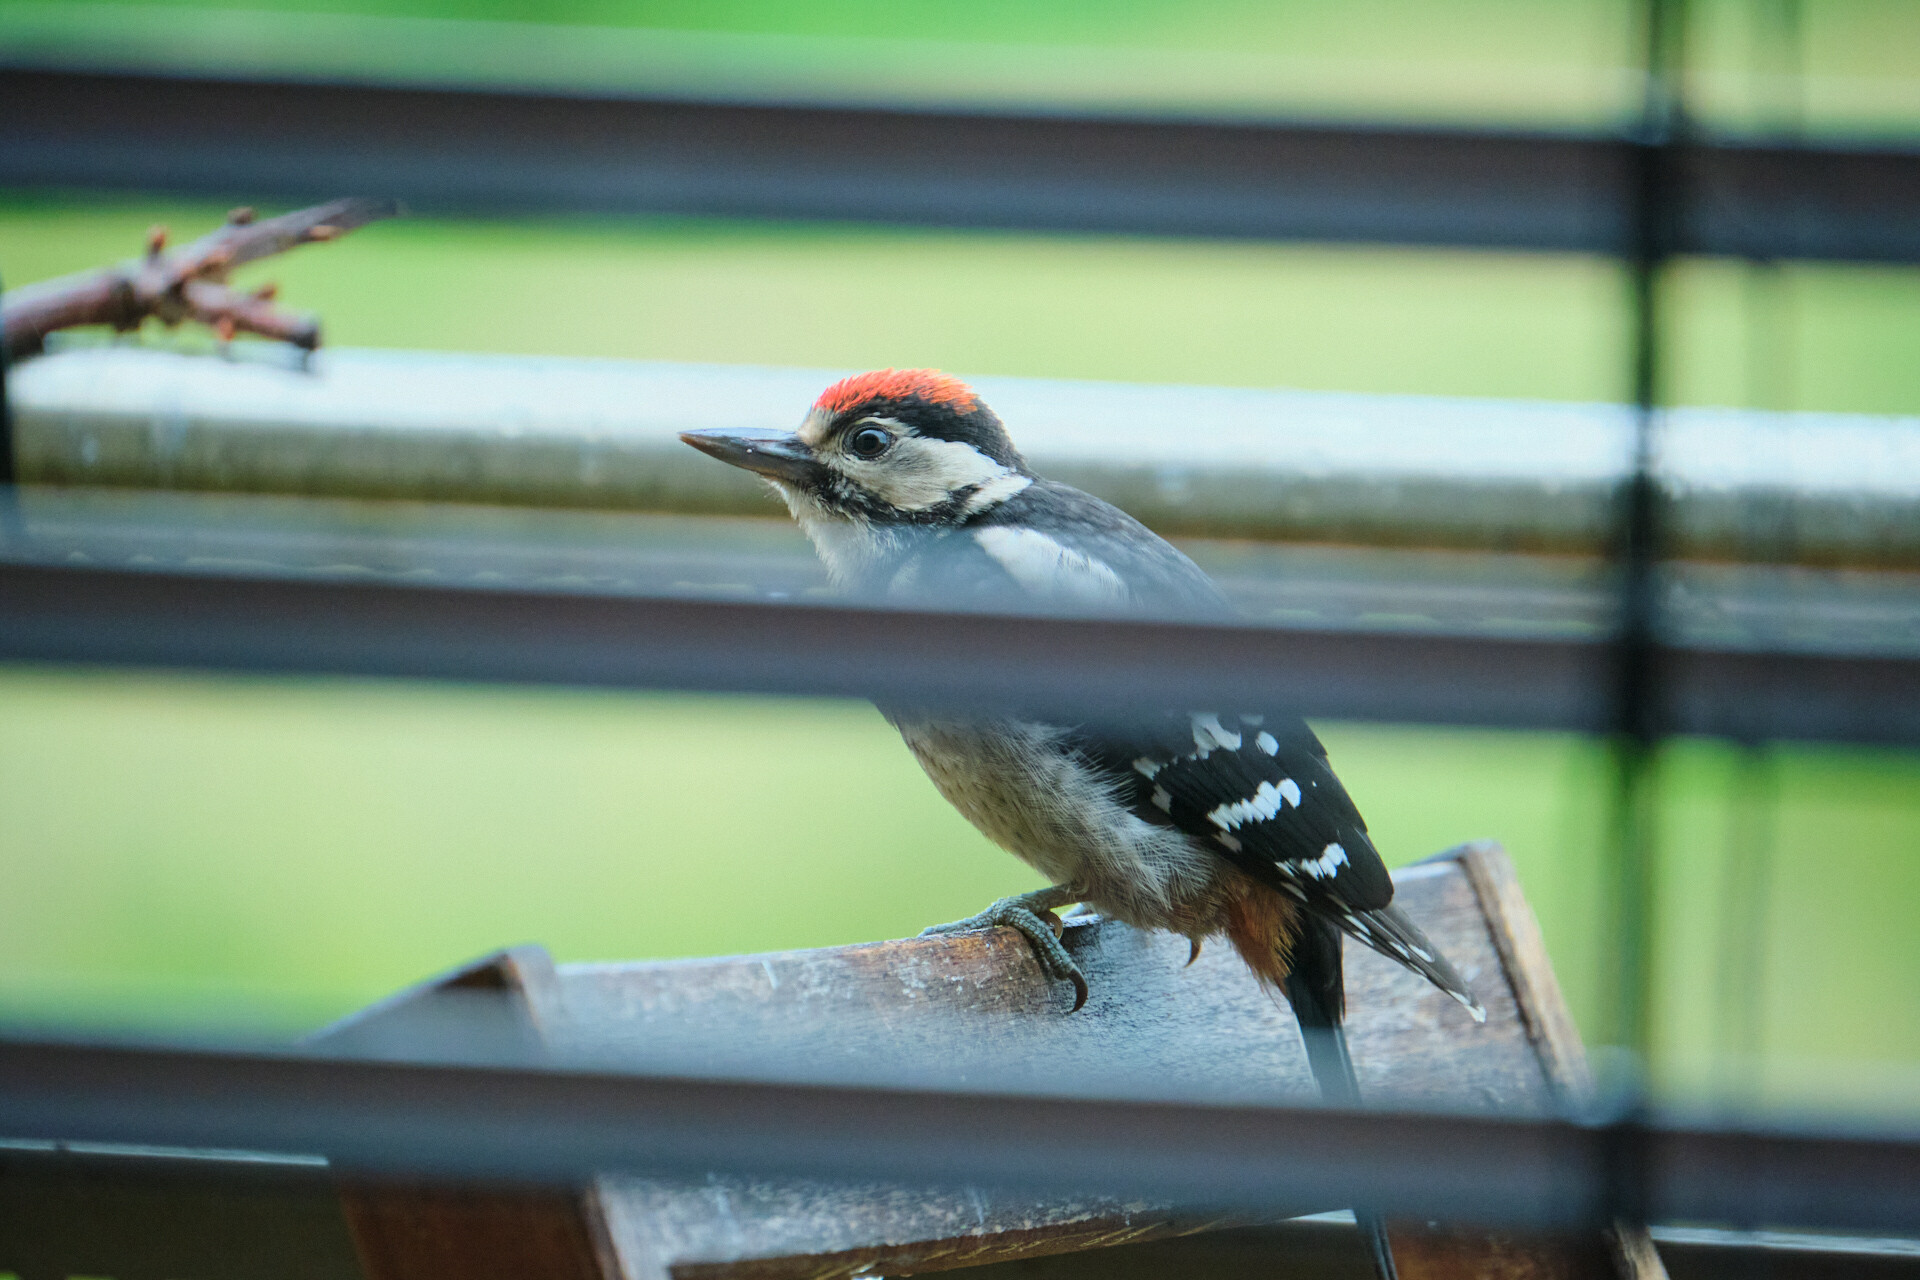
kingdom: Animalia
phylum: Chordata
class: Aves
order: Piciformes
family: Picidae
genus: Dendrocopos
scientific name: Dendrocopos major
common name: Great spotted woodpecker
